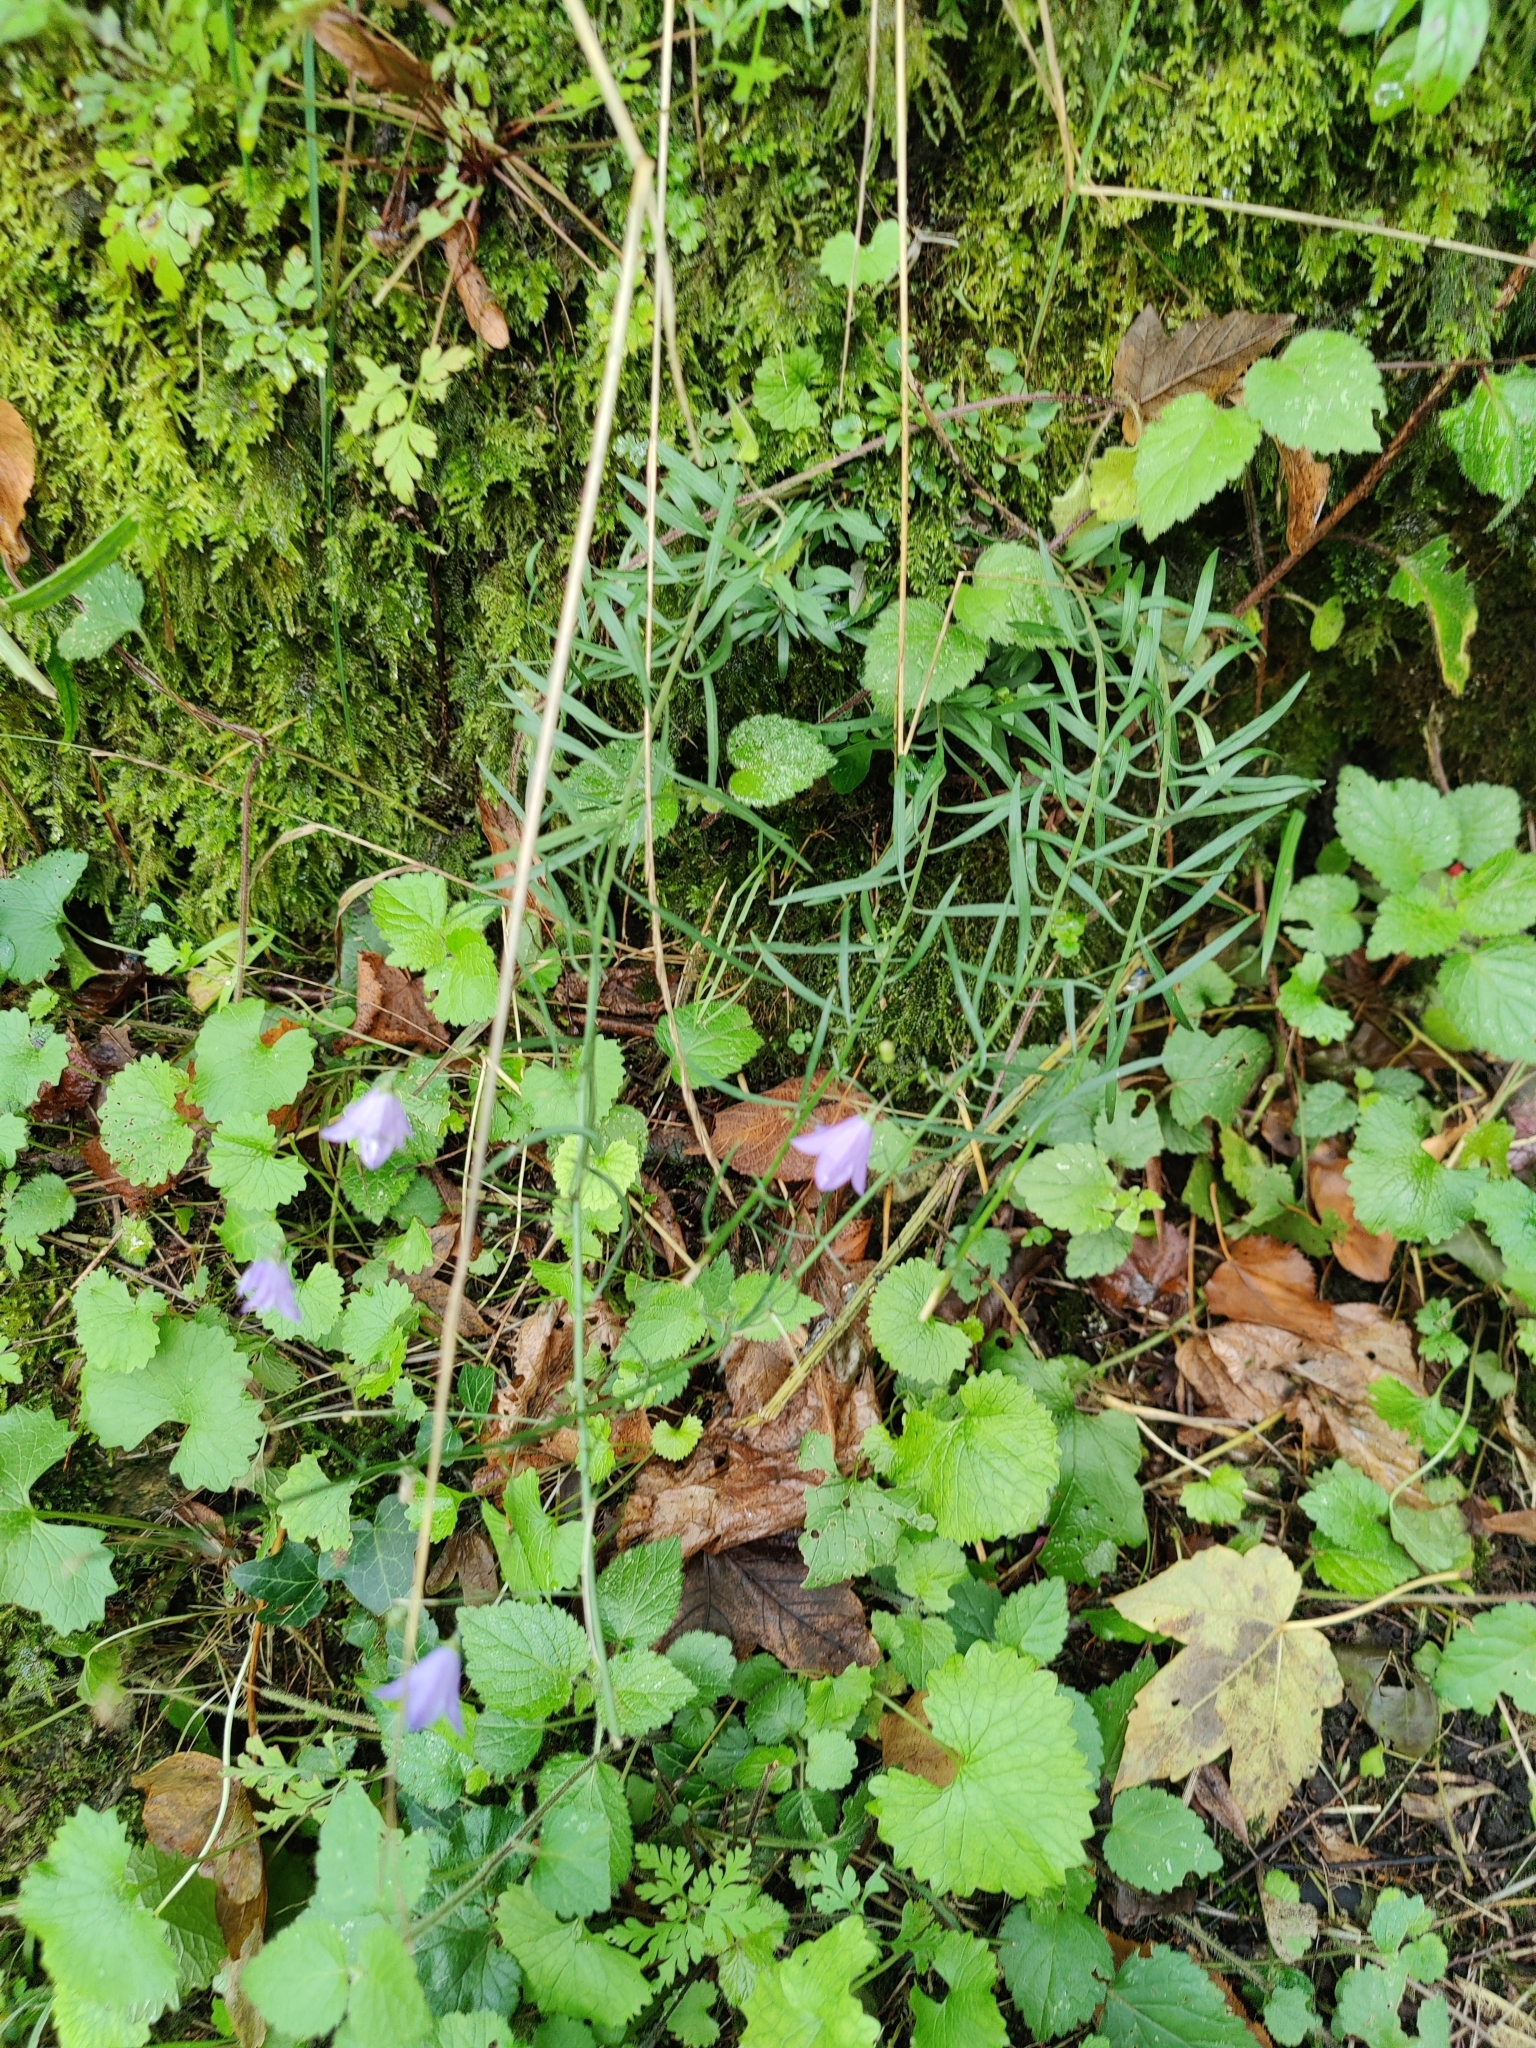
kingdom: Plantae
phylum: Tracheophyta
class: Magnoliopsida
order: Asterales
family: Campanulaceae
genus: Campanula
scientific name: Campanula rotundifolia
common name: Harebell
